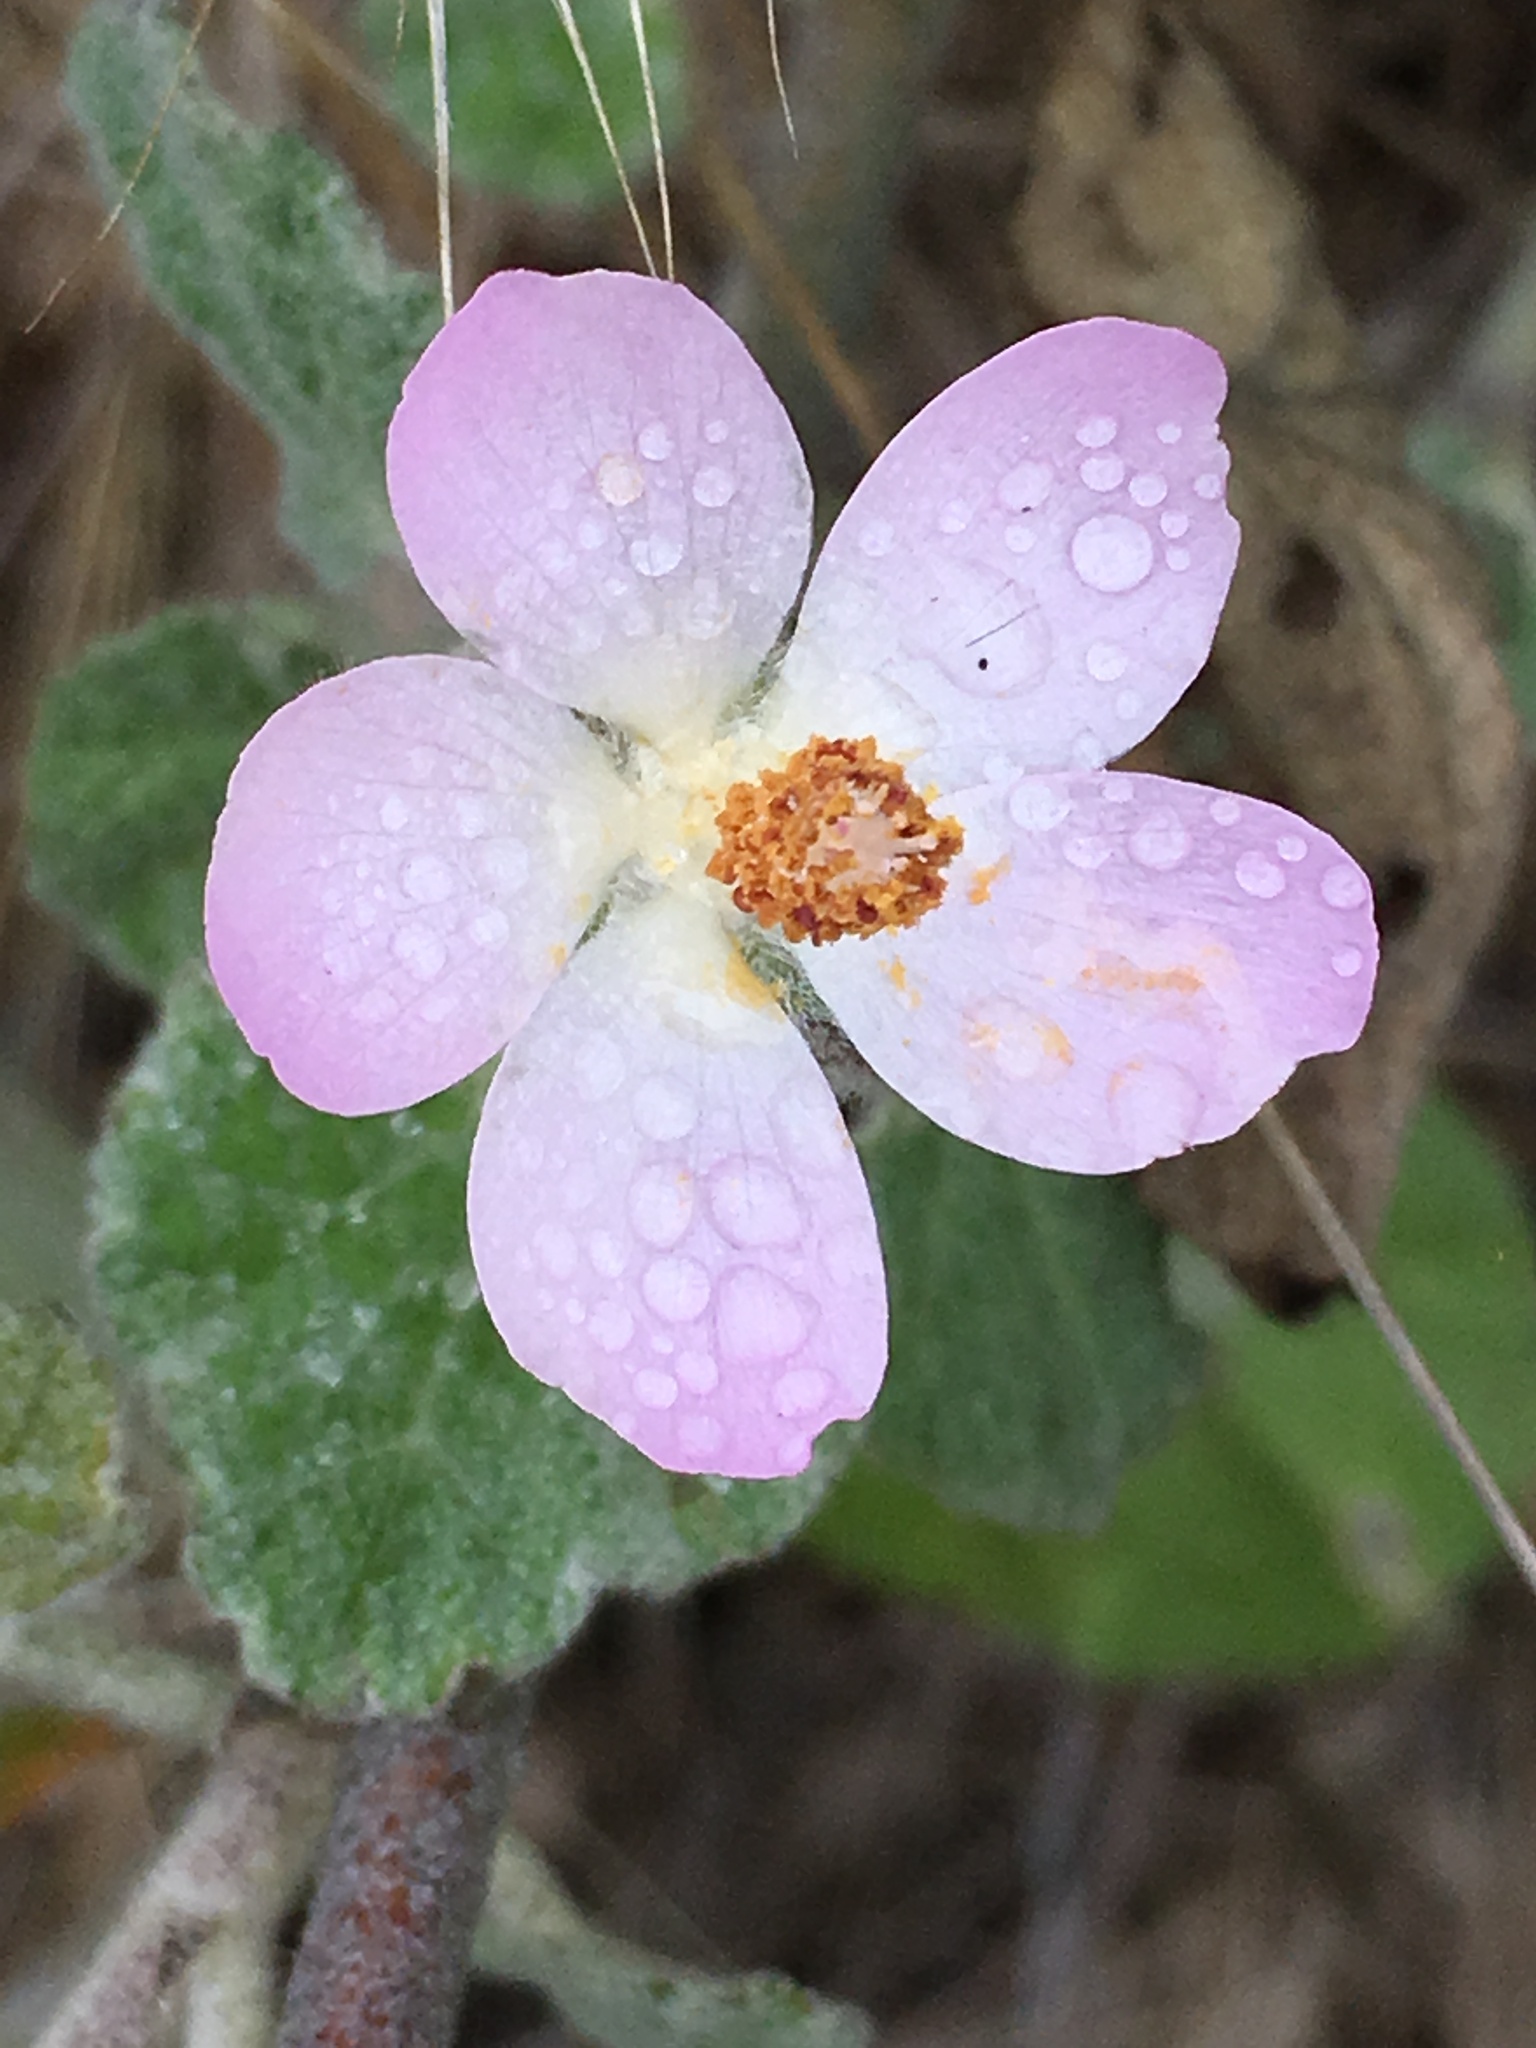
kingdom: Plantae
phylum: Tracheophyta
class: Magnoliopsida
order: Malvales
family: Malvaceae
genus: Malacothamnus
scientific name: Malacothamnus clementinus
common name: San clemente island bush-mallow
